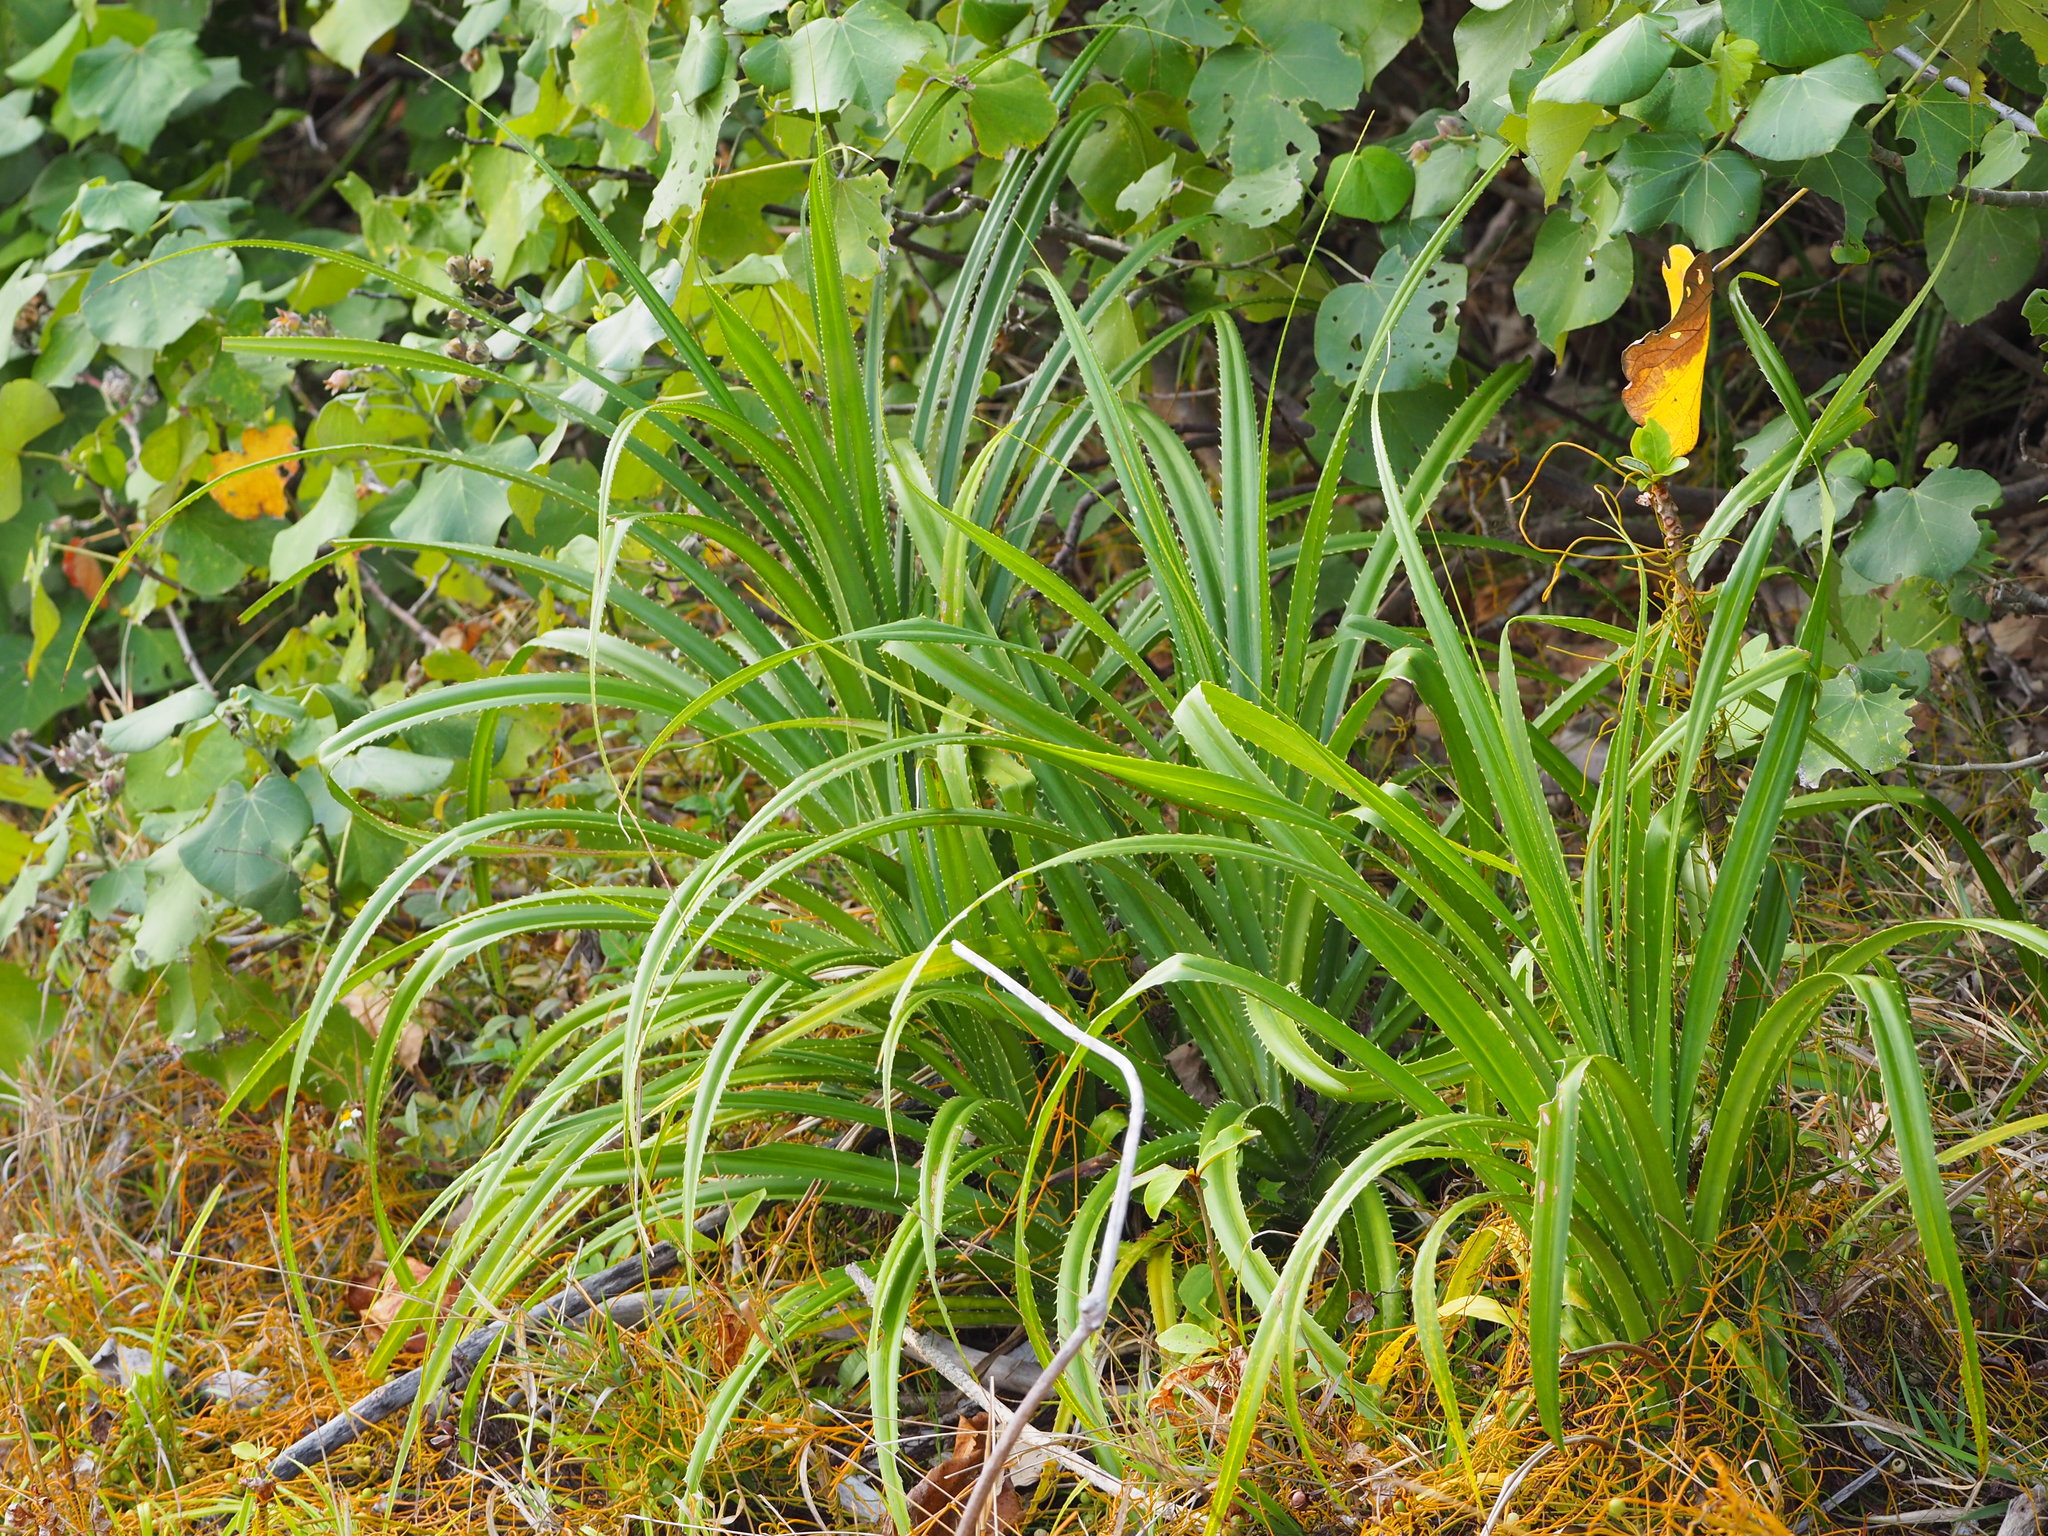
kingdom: Plantae
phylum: Tracheophyta
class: Liliopsida
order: Pandanales
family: Pandanaceae
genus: Pandanus
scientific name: Pandanus odorifer
